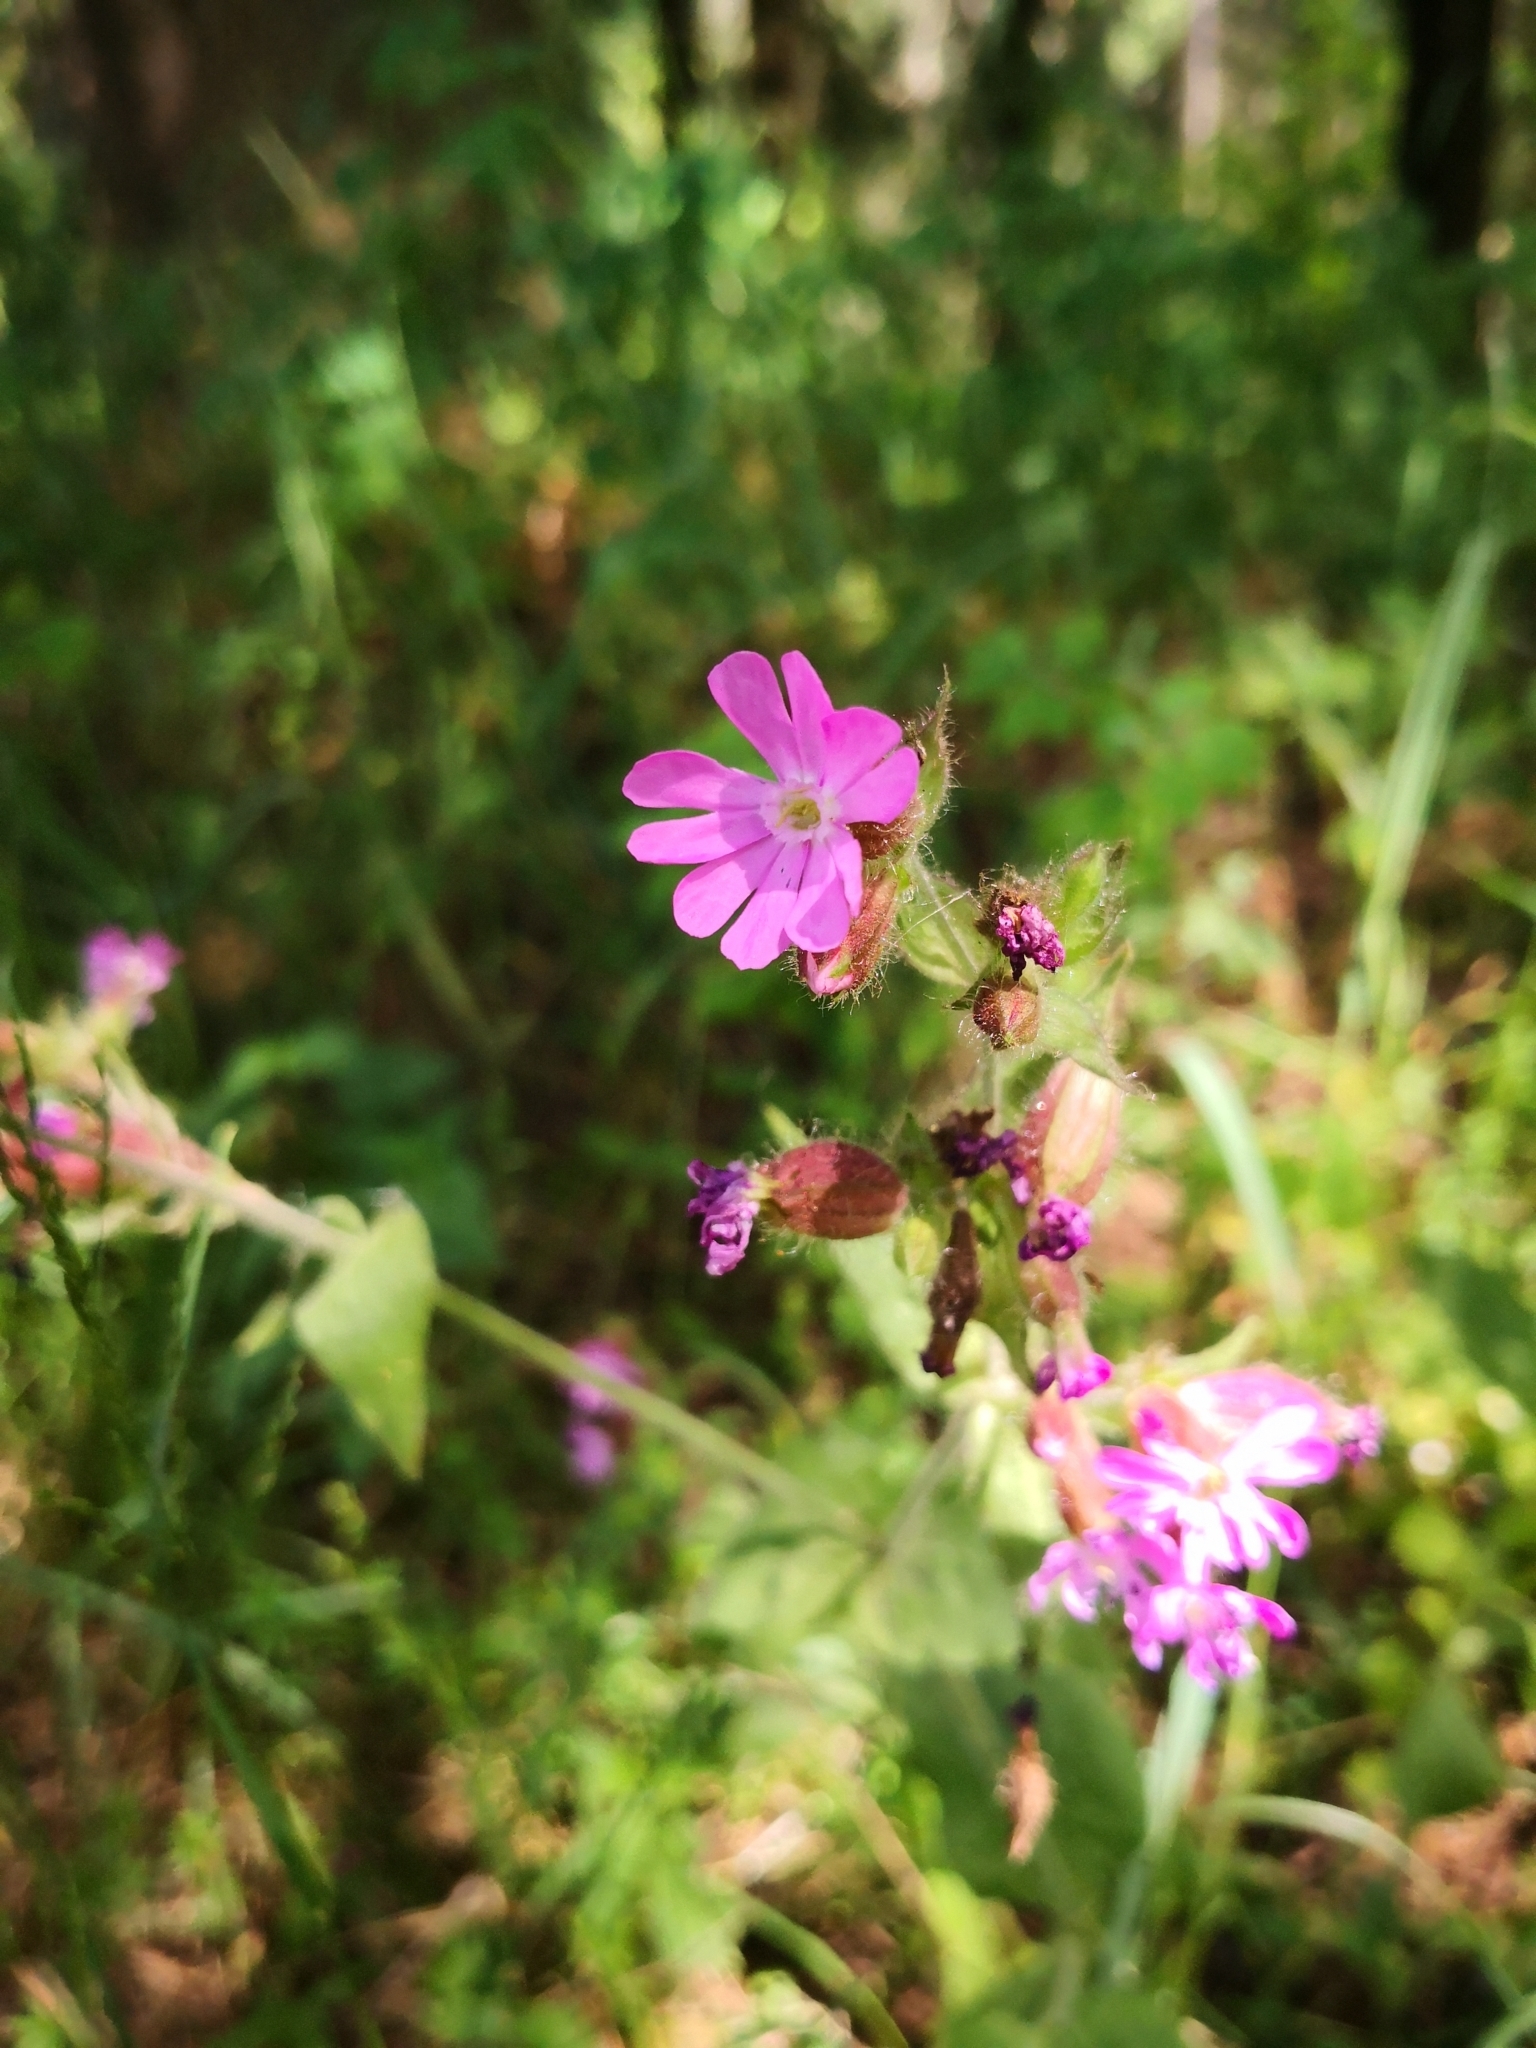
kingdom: Plantae
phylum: Tracheophyta
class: Magnoliopsida
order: Caryophyllales
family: Caryophyllaceae
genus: Silene
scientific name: Silene dioica
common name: Red campion
